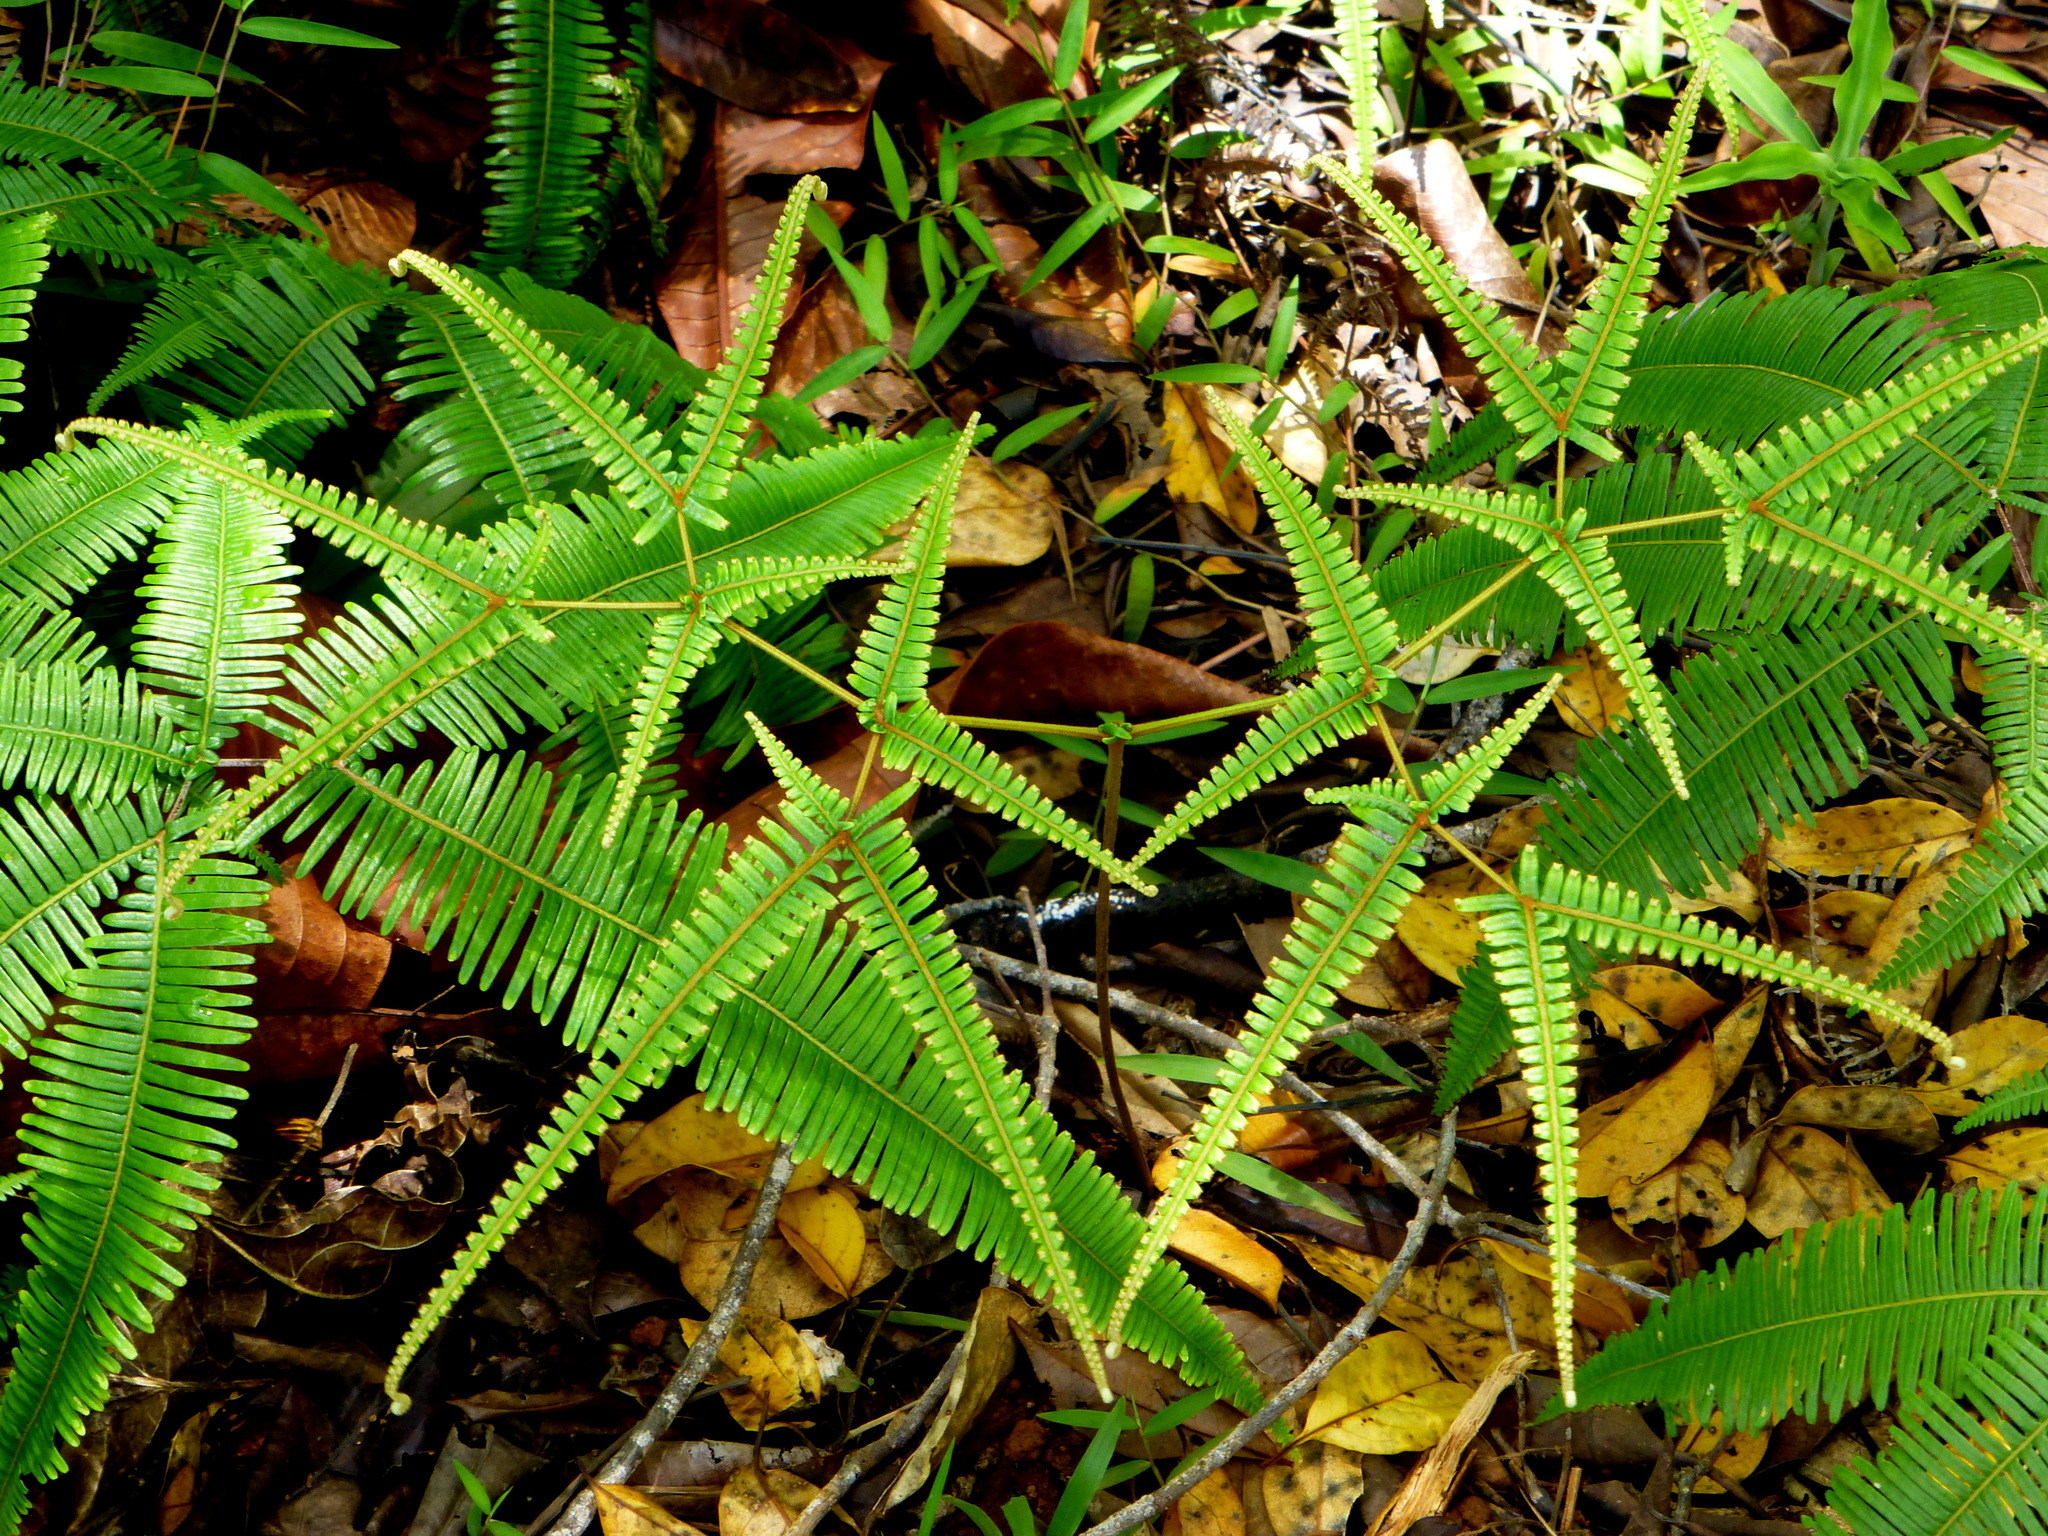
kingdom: Plantae
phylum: Tracheophyta
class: Polypodiopsida
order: Gleicheniales
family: Gleicheniaceae
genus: Dicranopteris
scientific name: Dicranopteris tetraphylla
